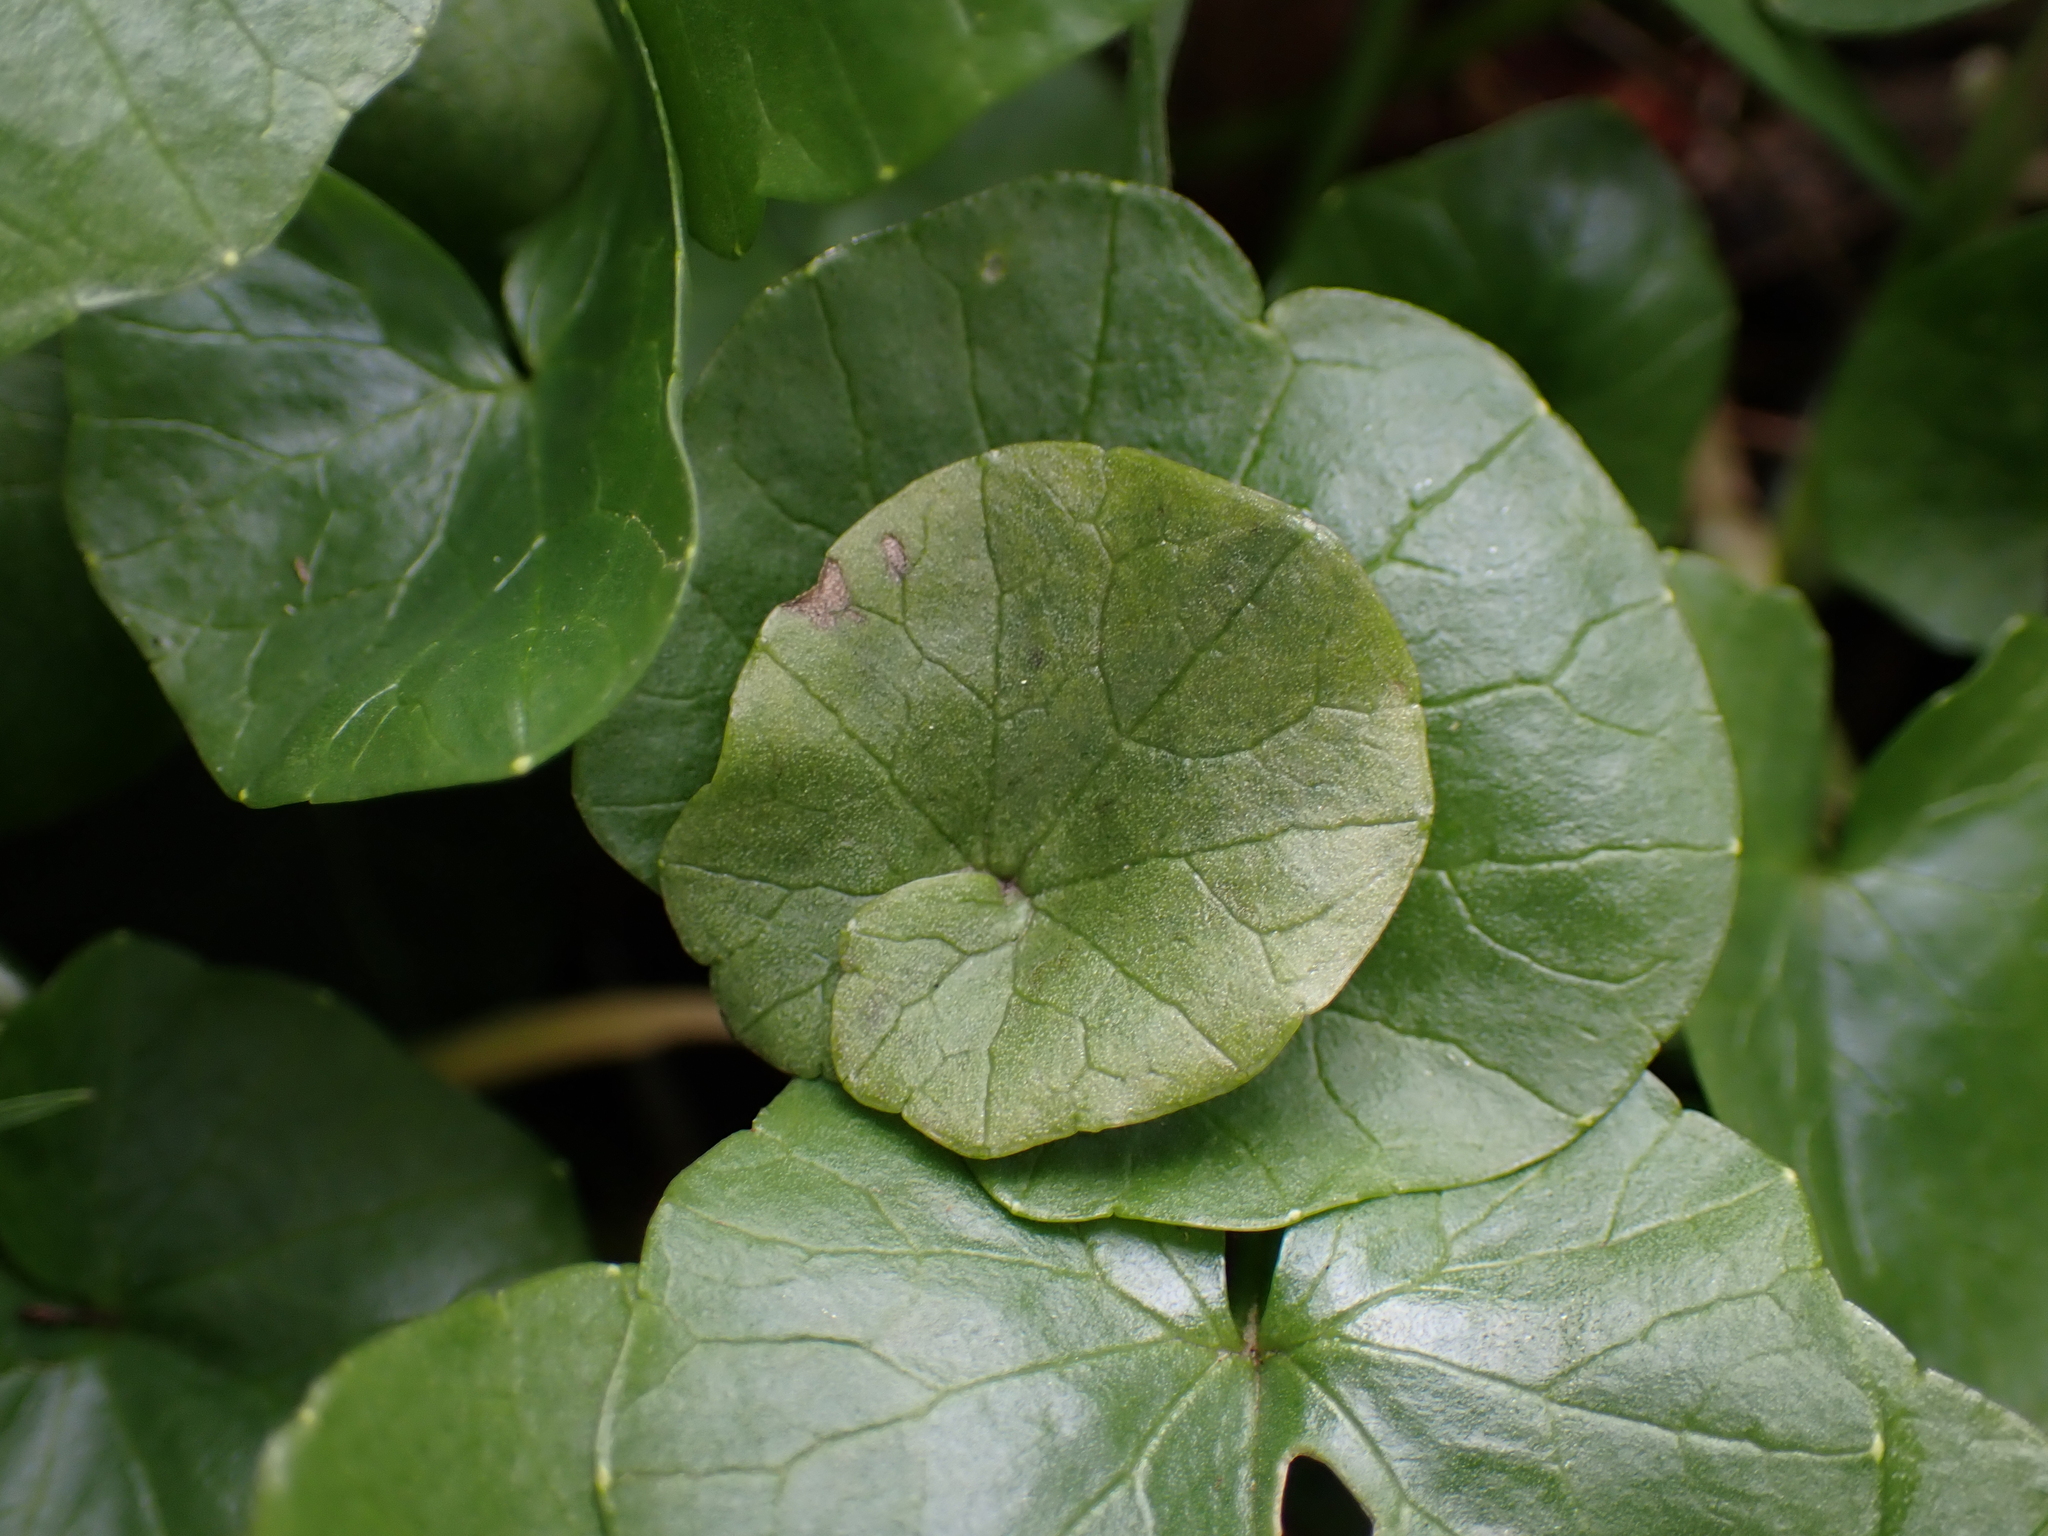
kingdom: Plantae
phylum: Tracheophyta
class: Magnoliopsida
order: Ranunculales
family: Ranunculaceae
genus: Ficaria
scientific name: Ficaria verna
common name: Lesser celandine
